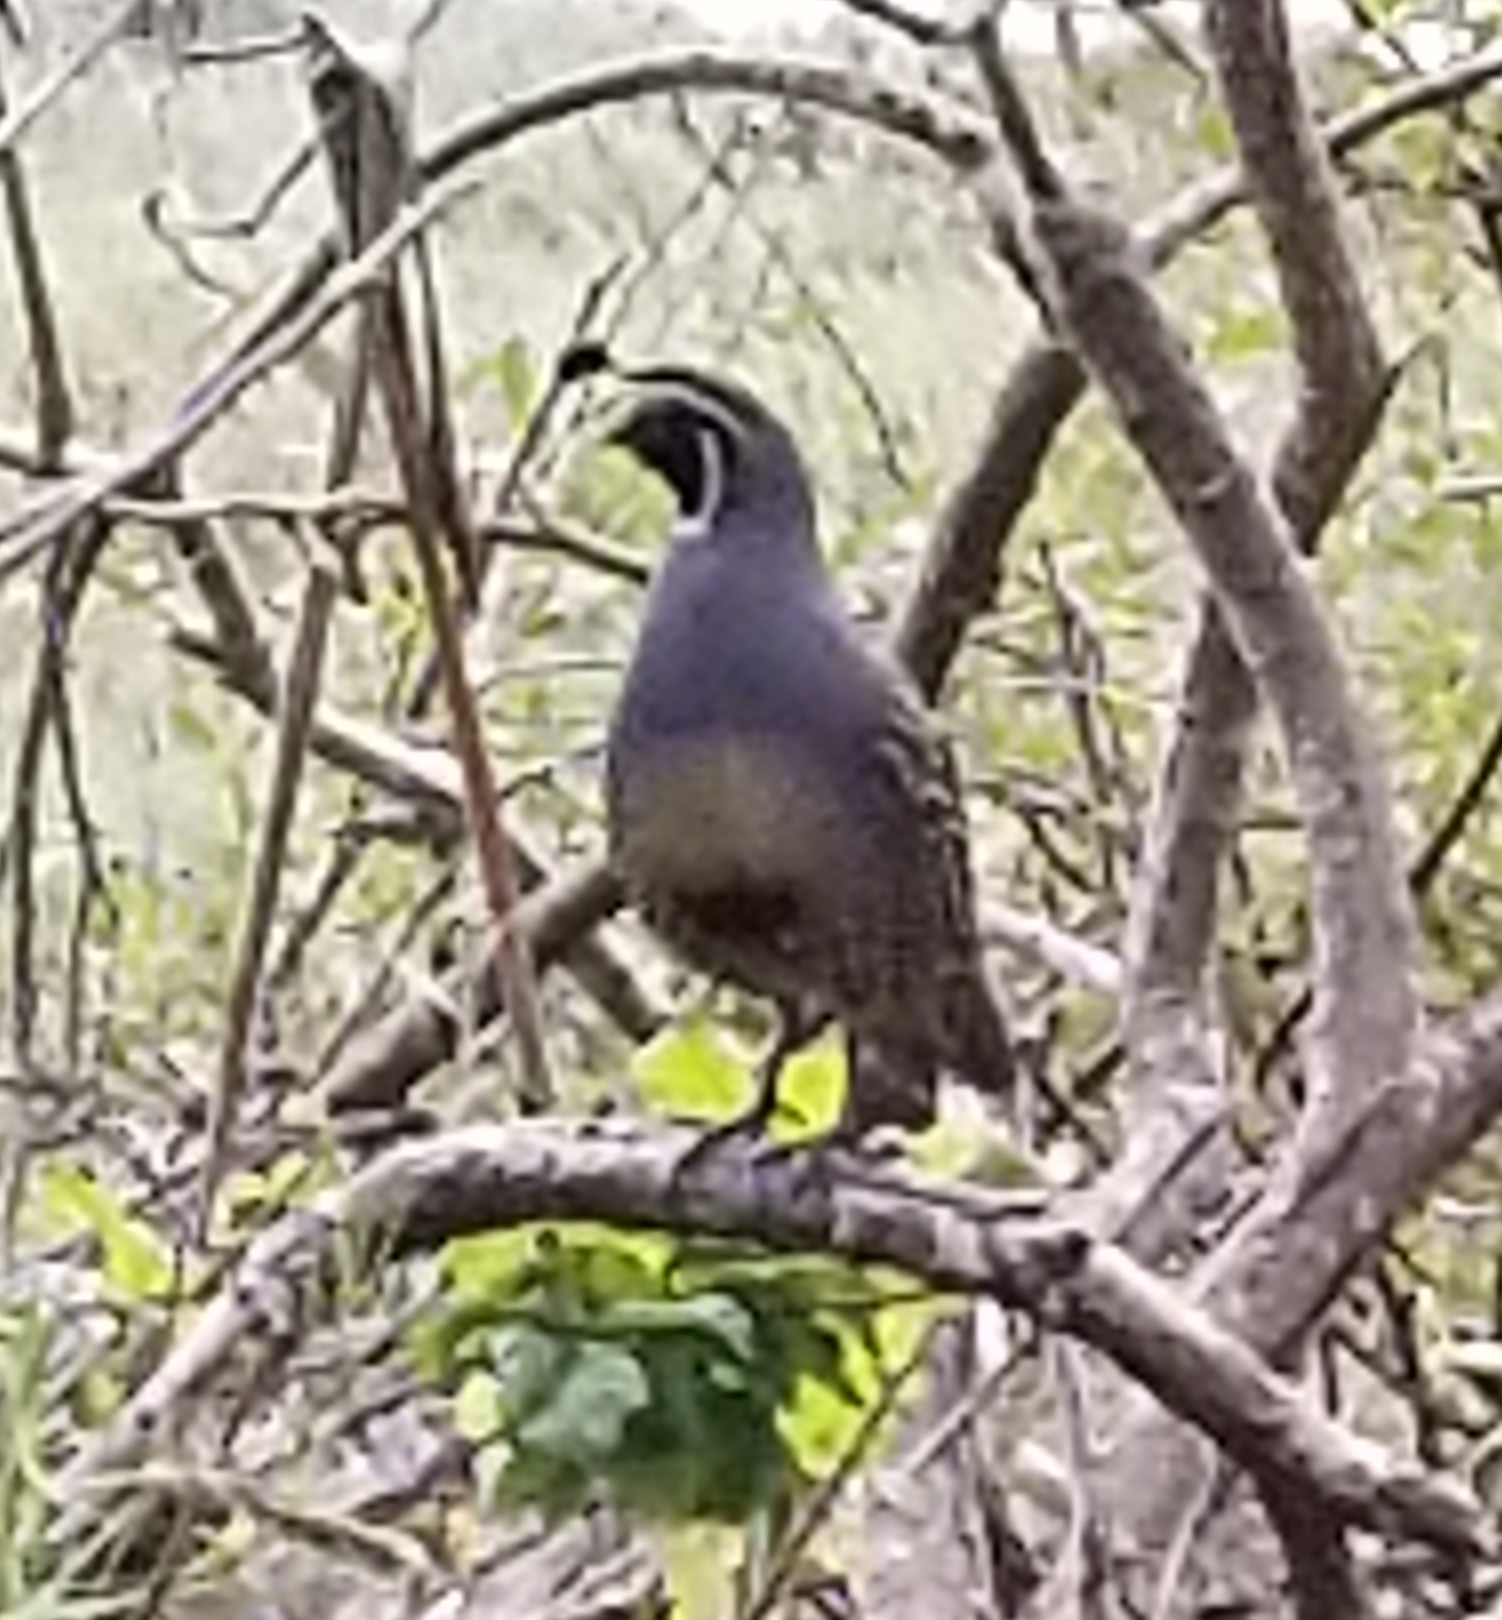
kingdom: Animalia
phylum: Chordata
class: Aves
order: Galliformes
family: Odontophoridae
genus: Callipepla
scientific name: Callipepla californica
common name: California quail
